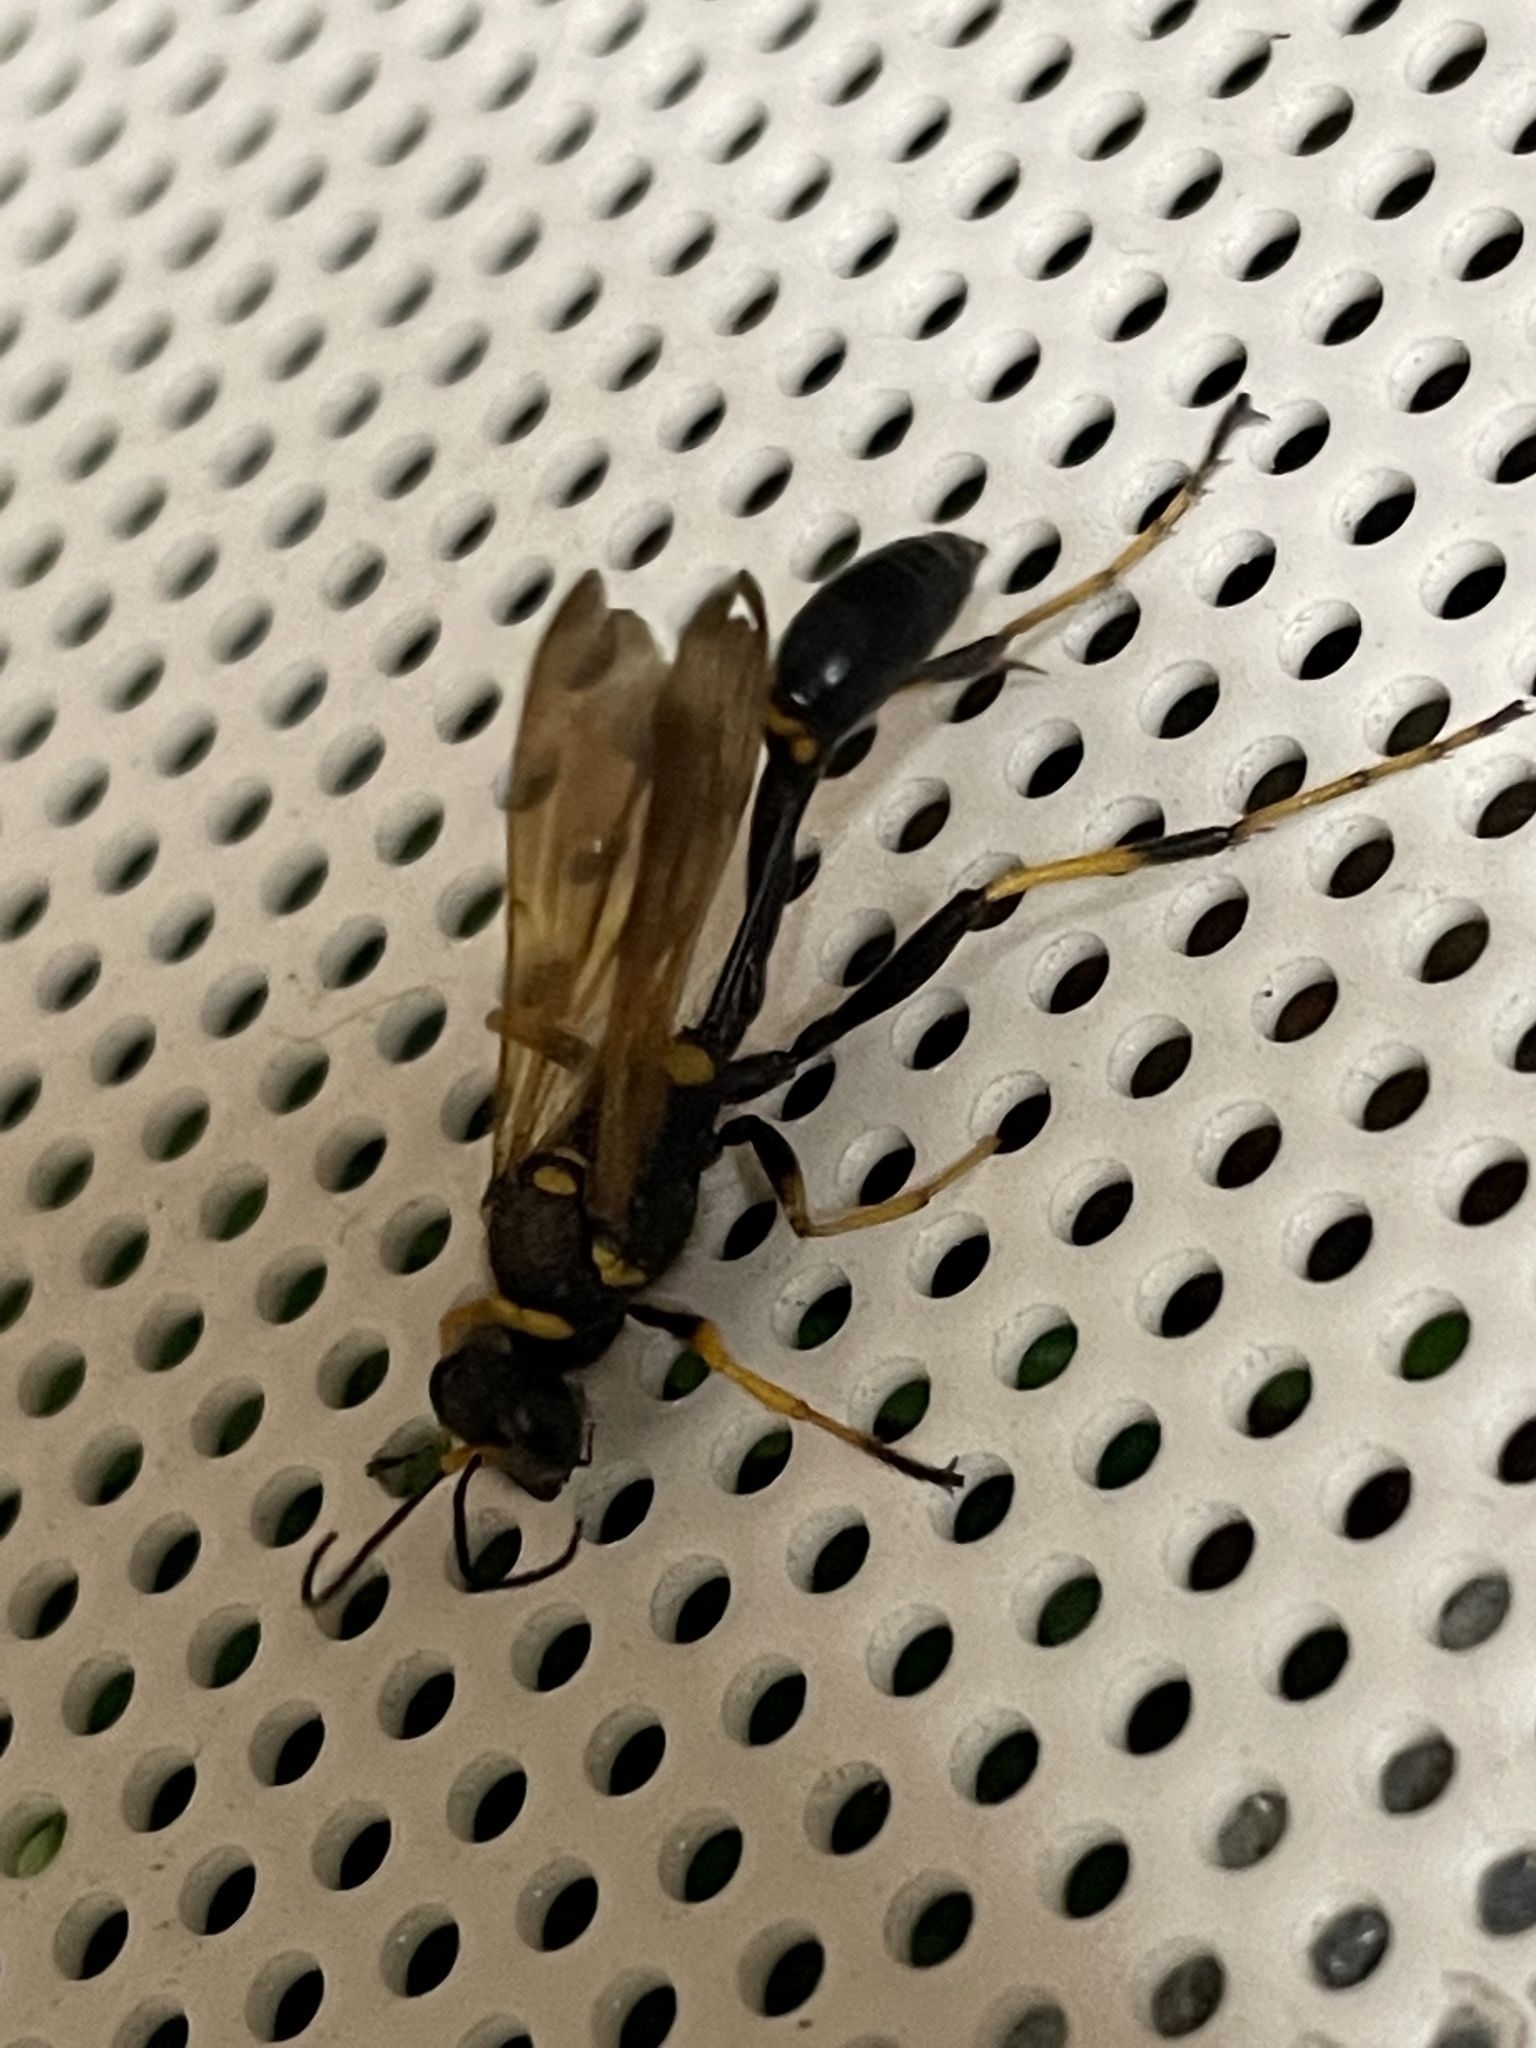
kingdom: Animalia
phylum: Arthropoda
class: Insecta
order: Hymenoptera
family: Sphecidae
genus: Sceliphron
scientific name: Sceliphron caementarium
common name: Mud dauber
